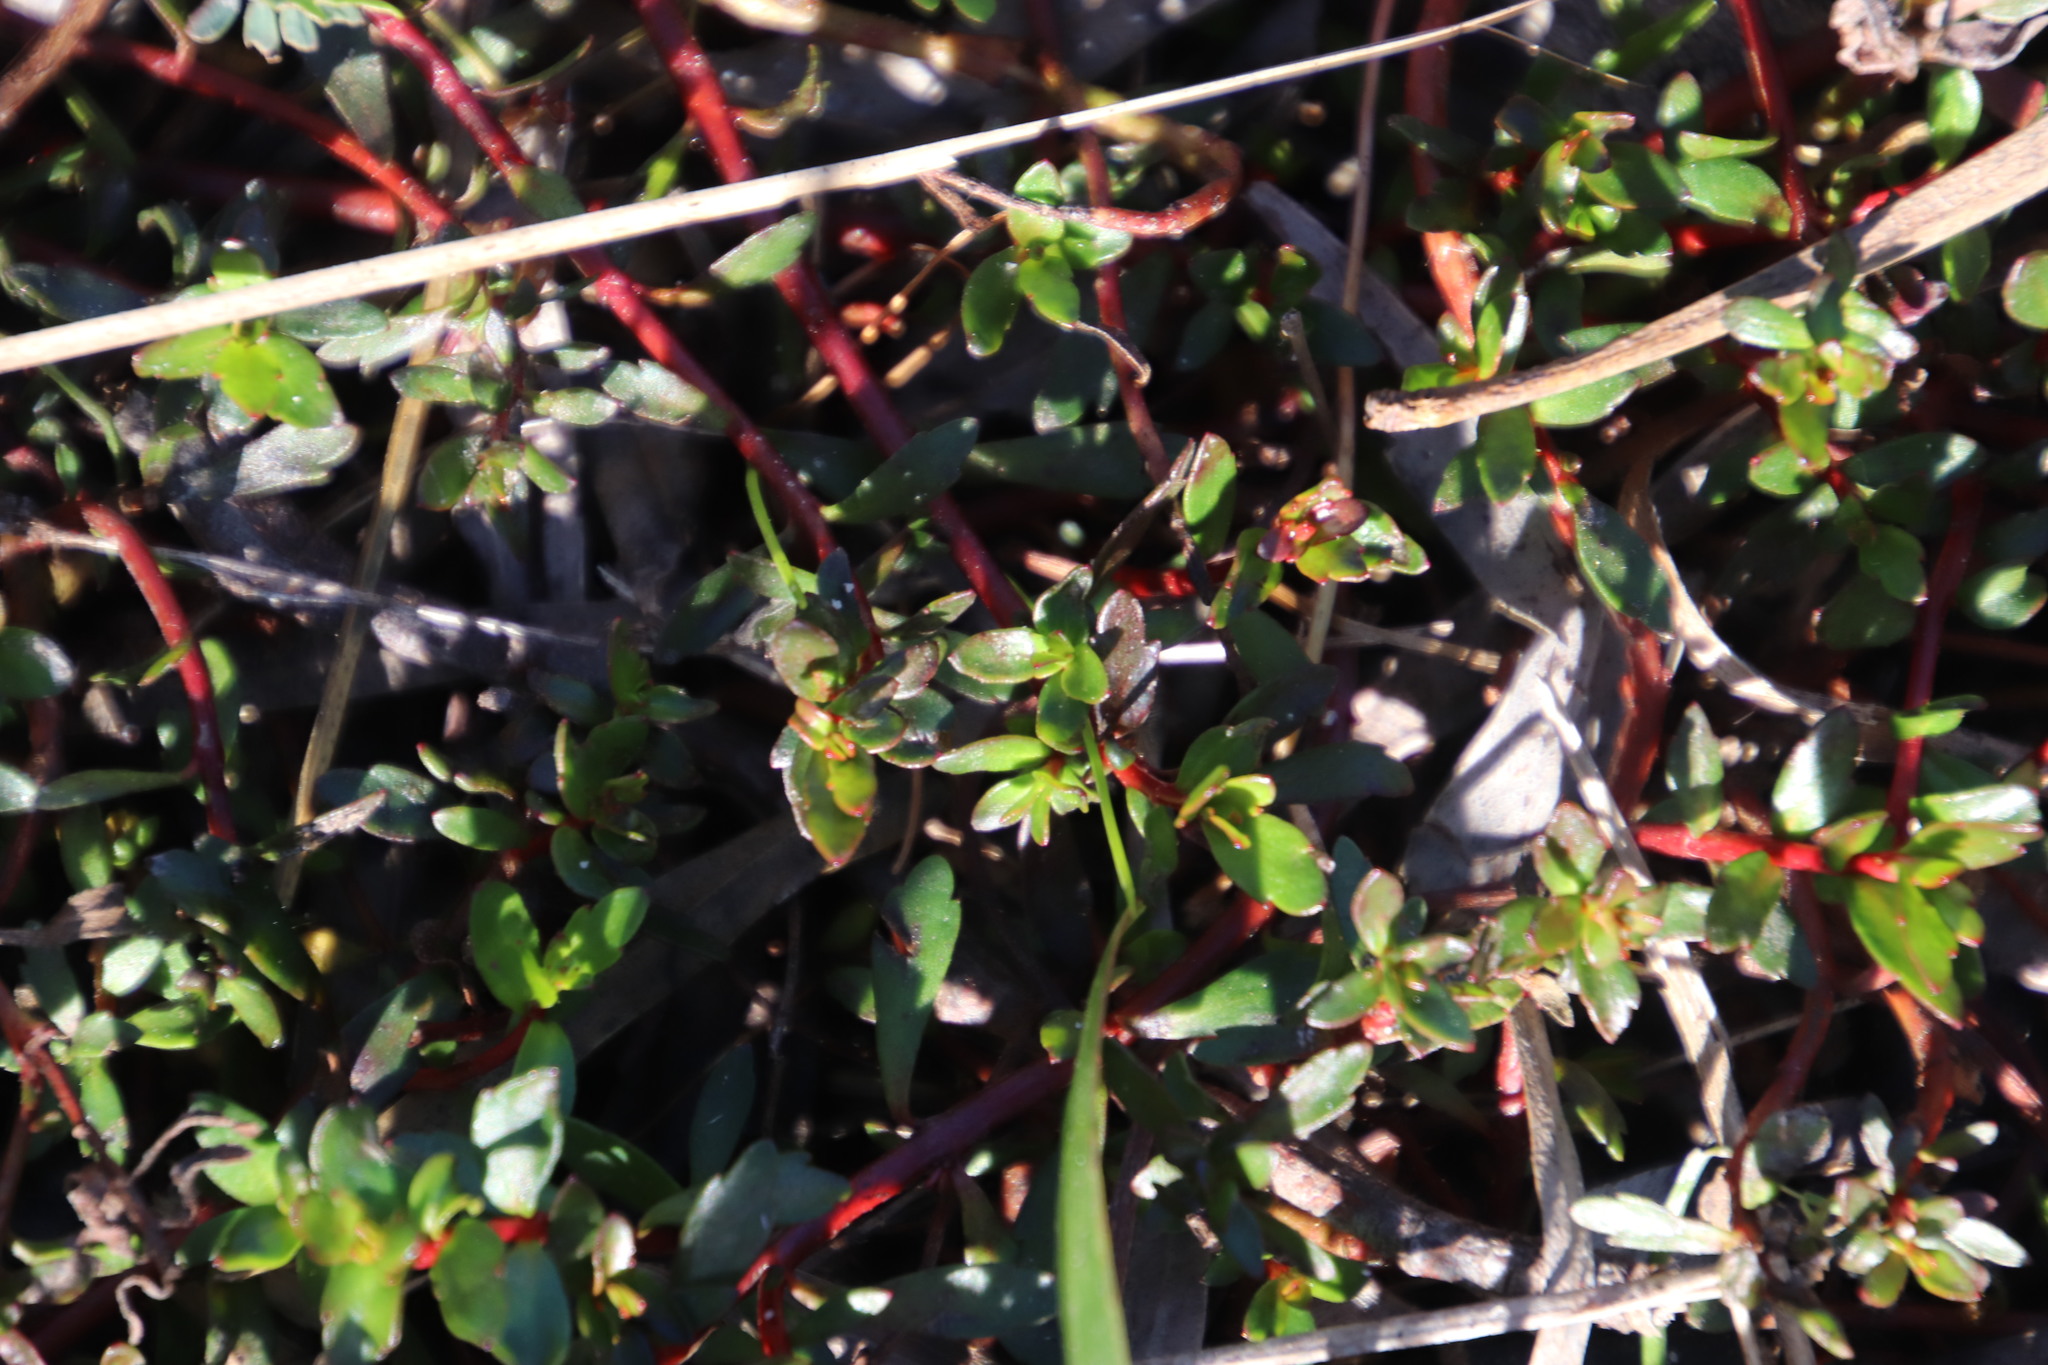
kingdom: Plantae
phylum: Tracheophyta
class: Magnoliopsida
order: Saxifragales
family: Haloragaceae
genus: Laurembergia
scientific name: Laurembergia repens
